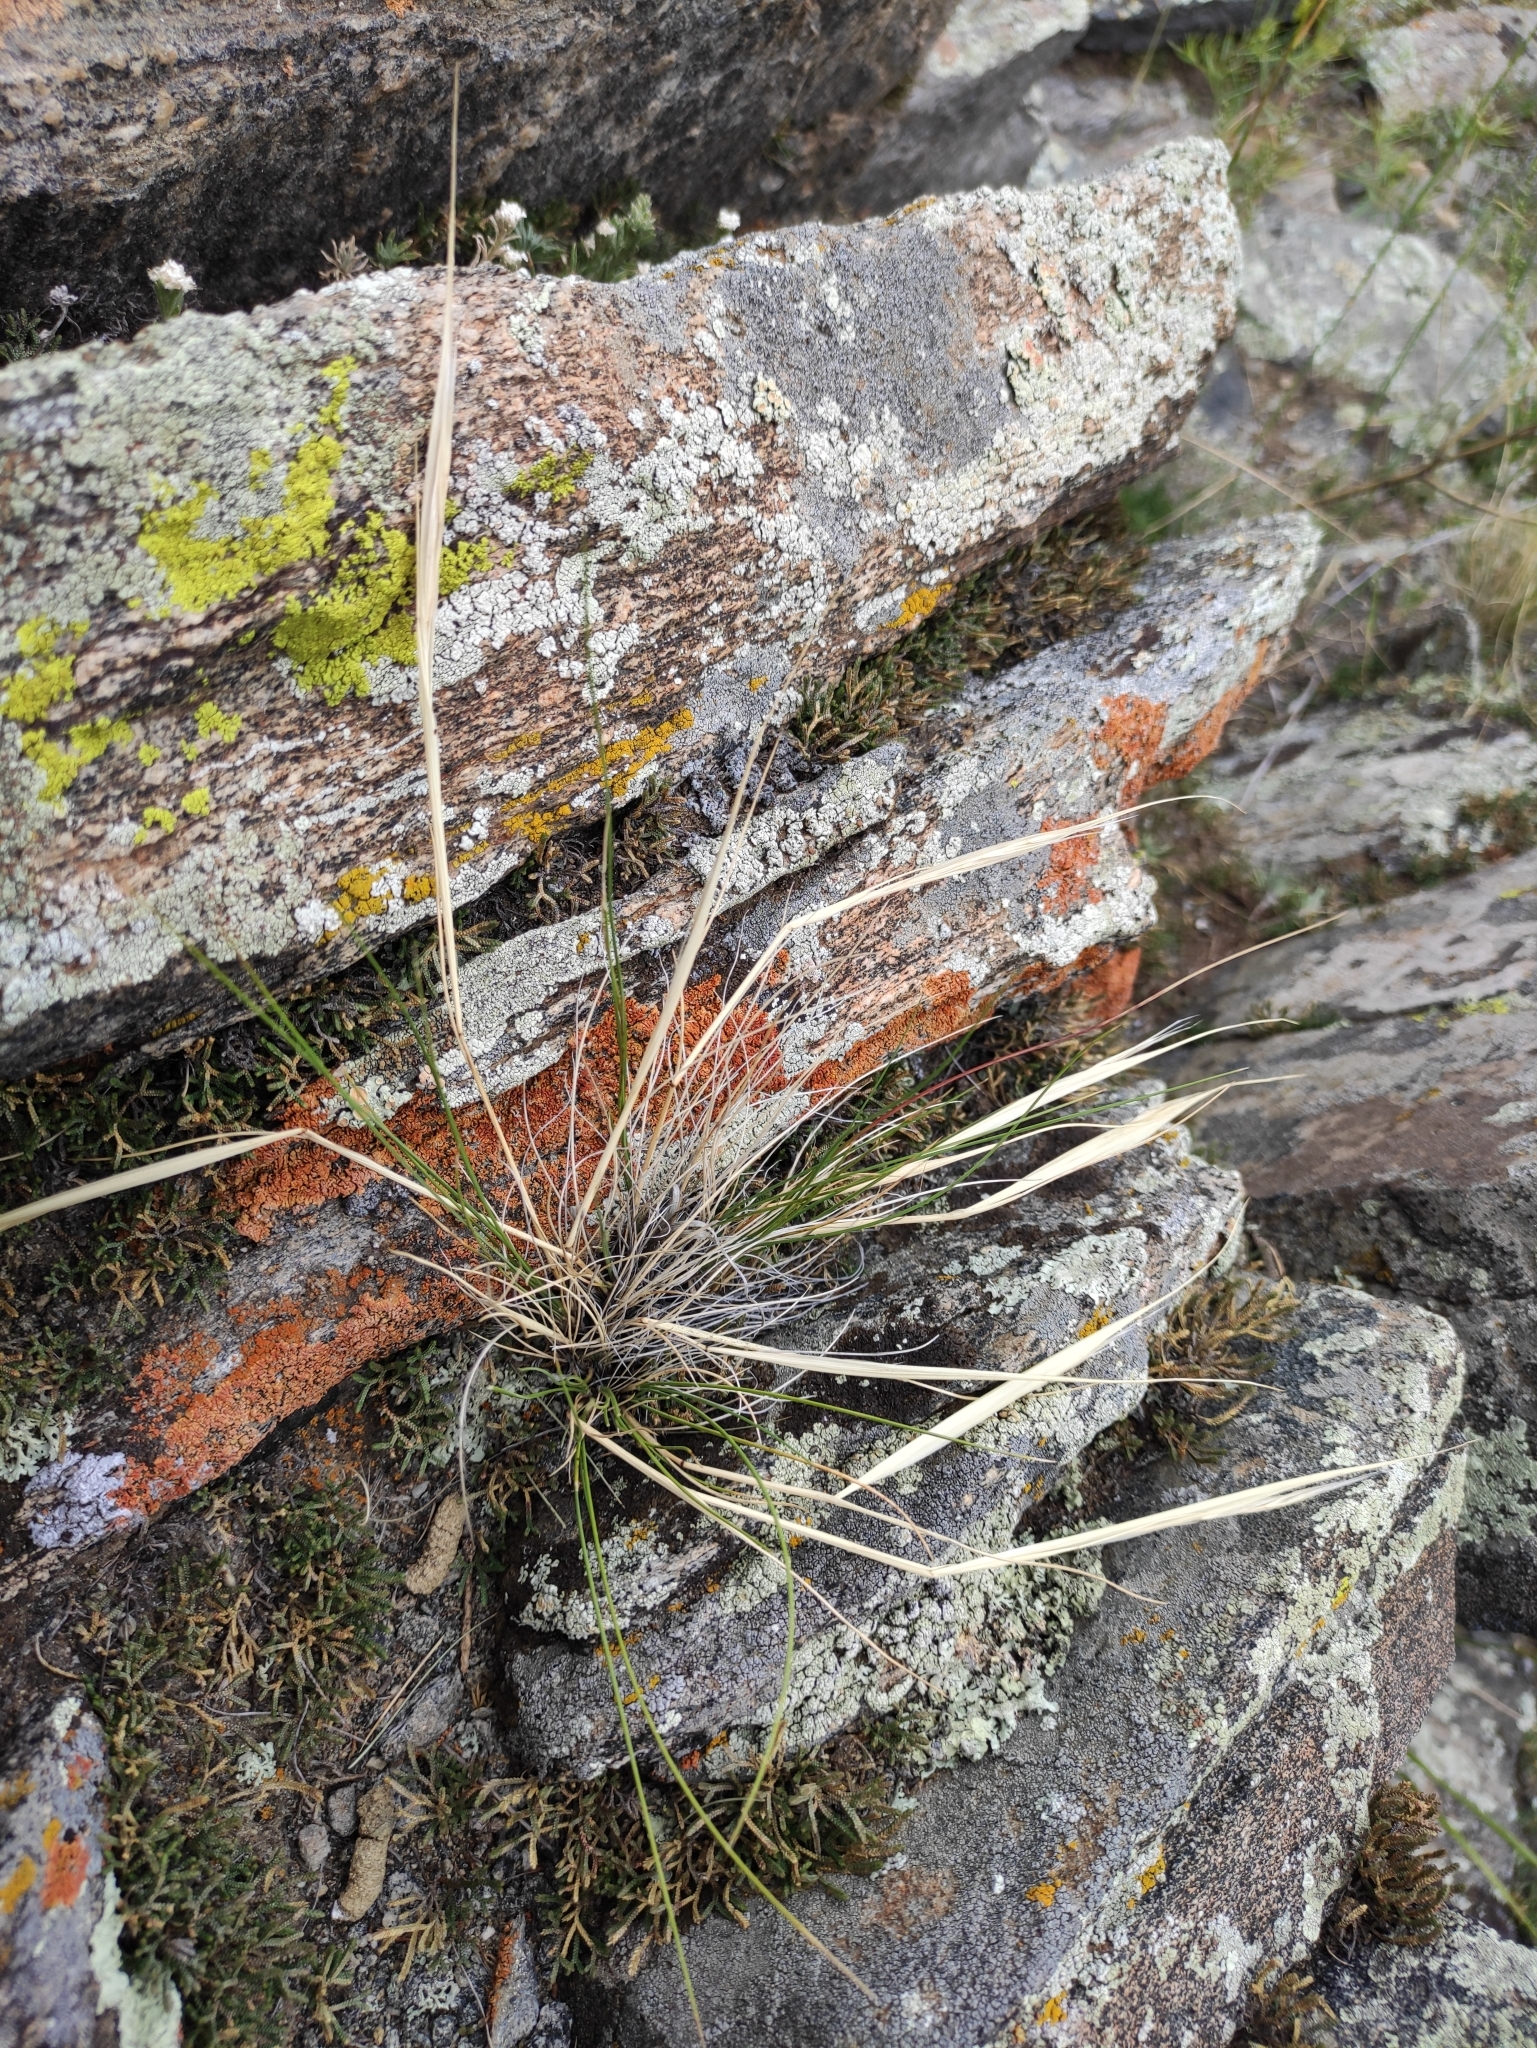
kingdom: Plantae
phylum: Tracheophyta
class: Liliopsida
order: Poales
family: Poaceae
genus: Stipa
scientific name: Stipa glareosa
